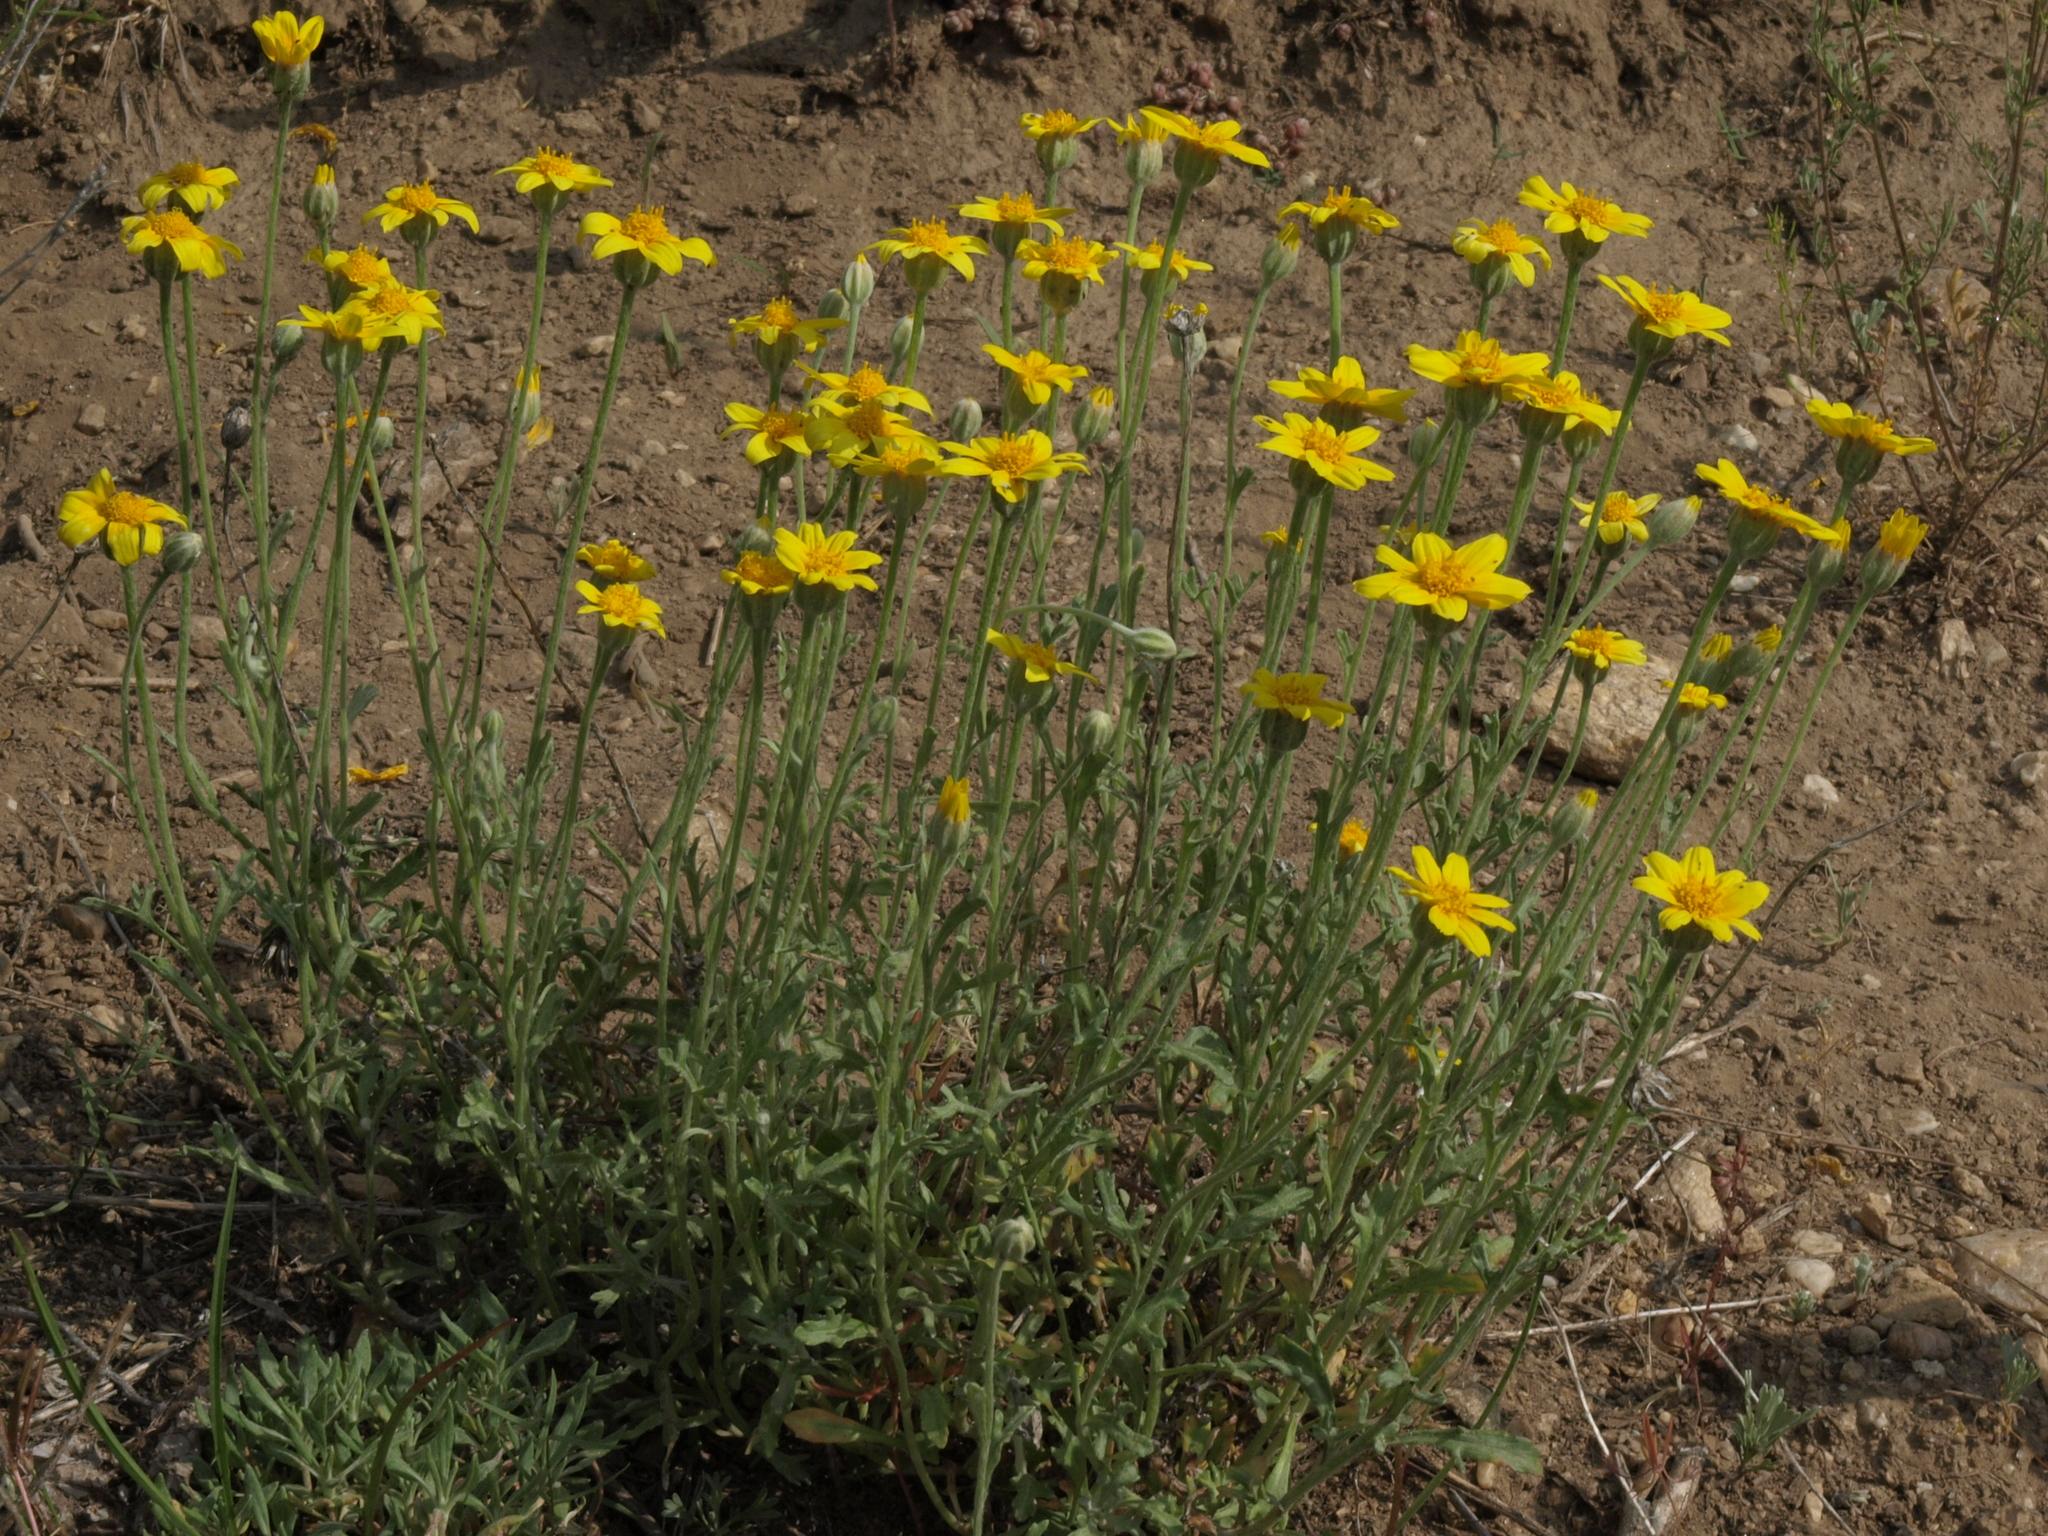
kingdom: Plantae
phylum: Tracheophyta
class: Magnoliopsida
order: Asterales
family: Asteraceae
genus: Eriophyllum
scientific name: Eriophyllum lanatum
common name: Common woolly-sunflower
